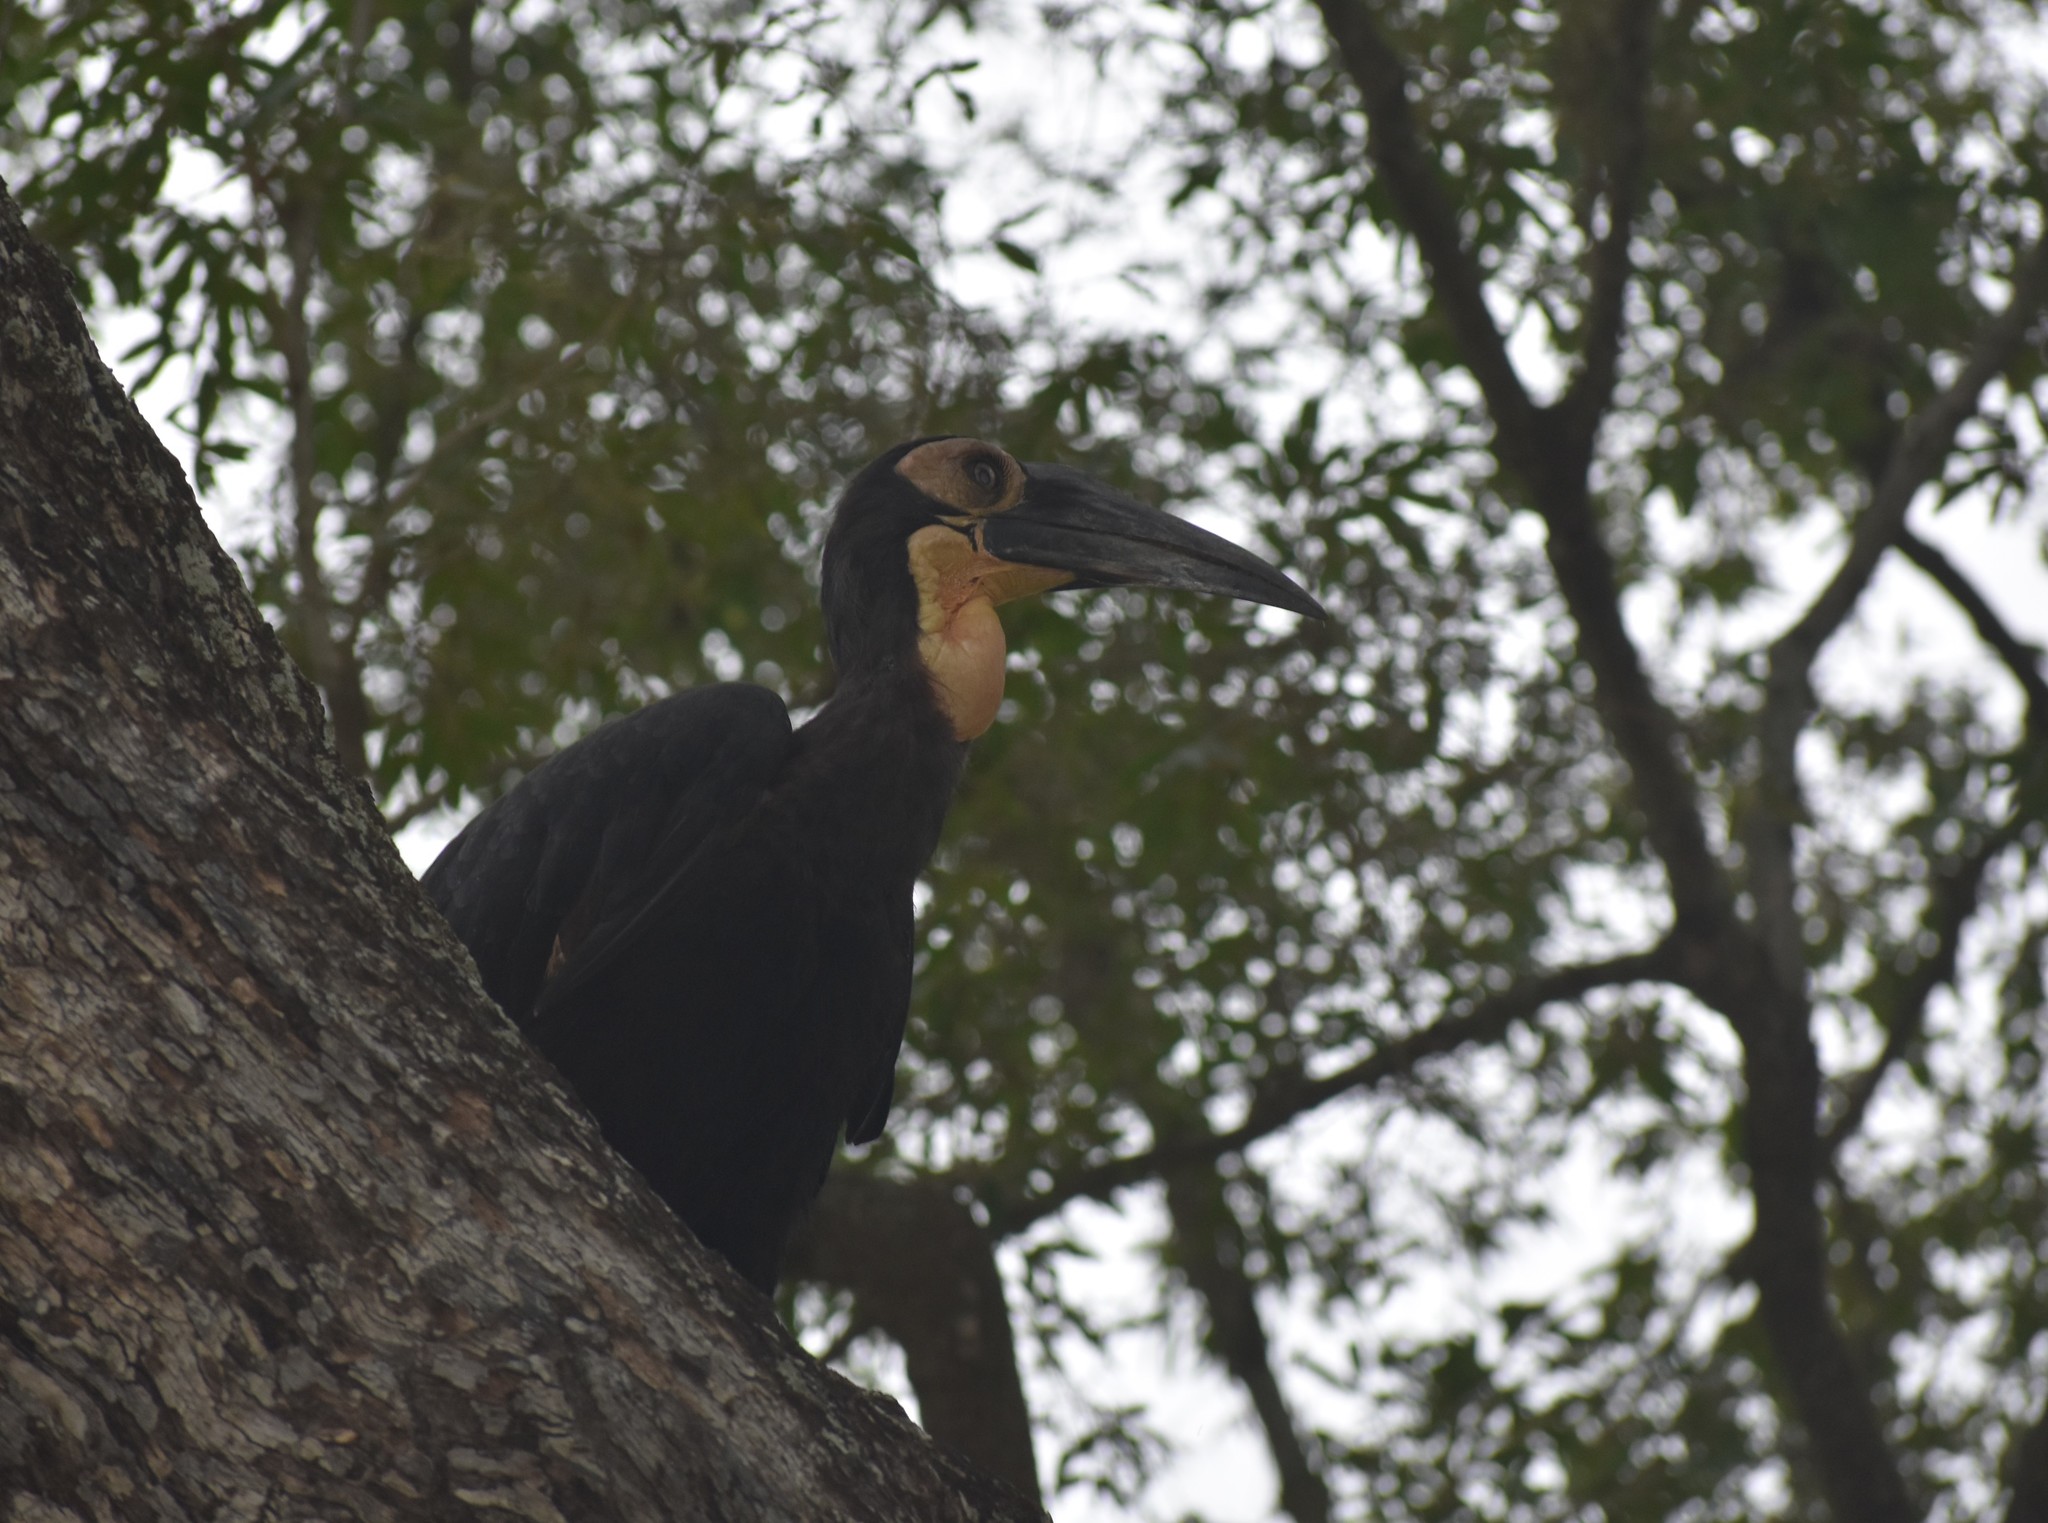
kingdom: Animalia
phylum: Chordata
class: Aves
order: Bucerotiformes
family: Bucorvidae
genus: Bucorvus
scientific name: Bucorvus leadbeateri
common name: Southern ground-hornbill
